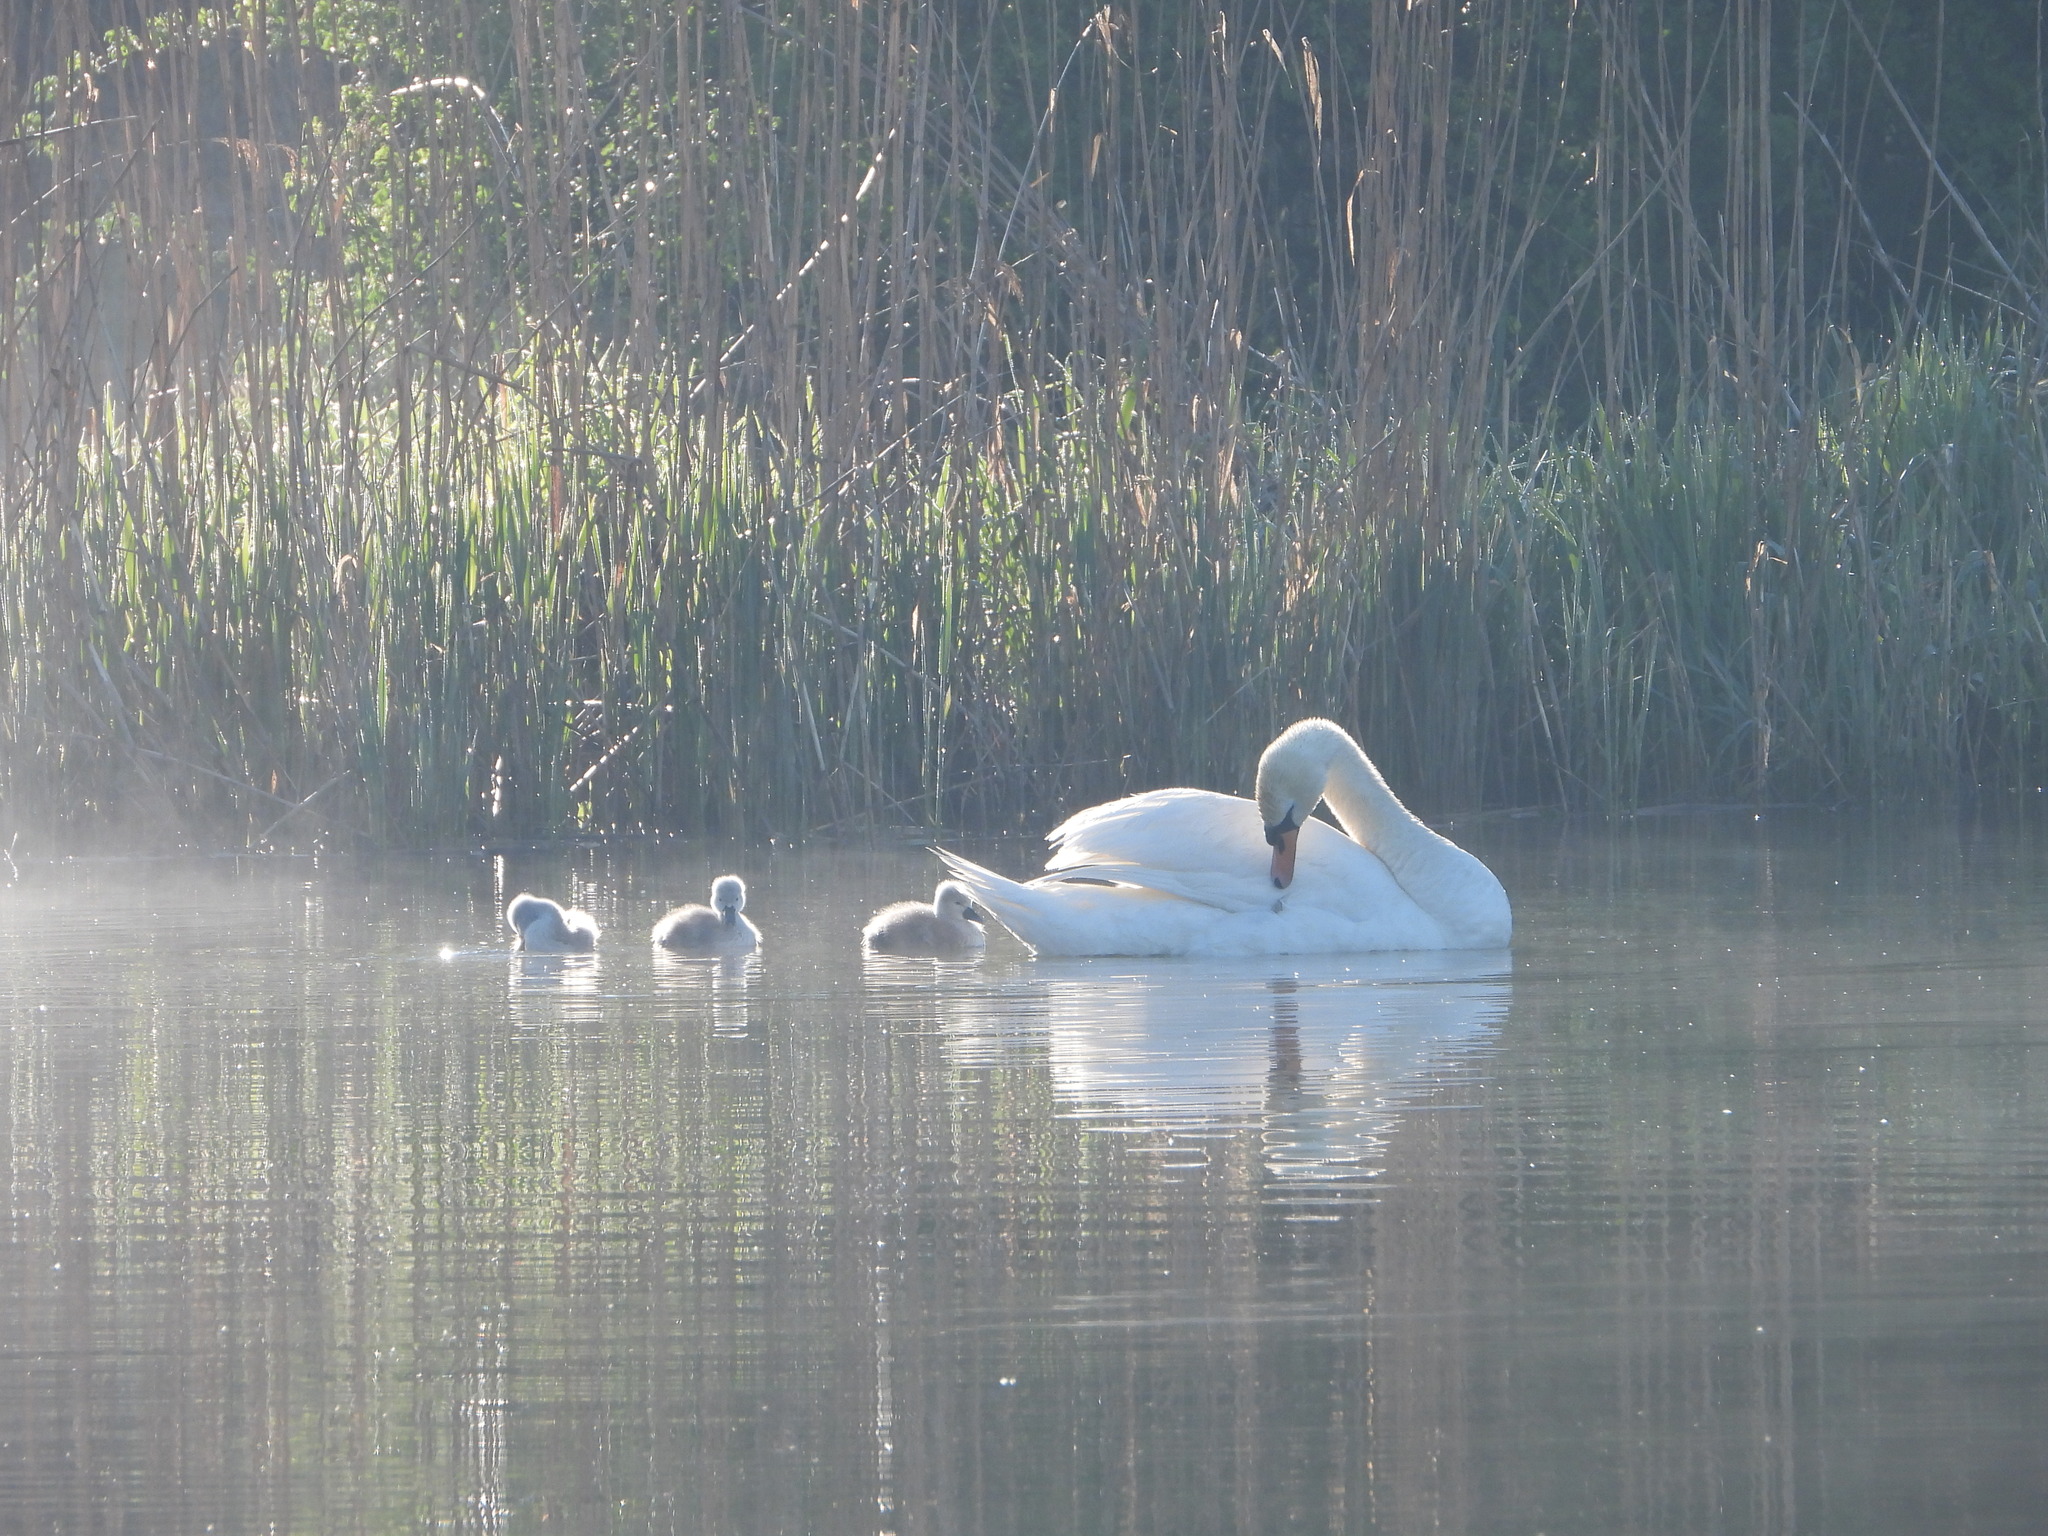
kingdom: Animalia
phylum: Chordata
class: Aves
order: Anseriformes
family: Anatidae
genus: Cygnus
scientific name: Cygnus olor
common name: Mute swan
